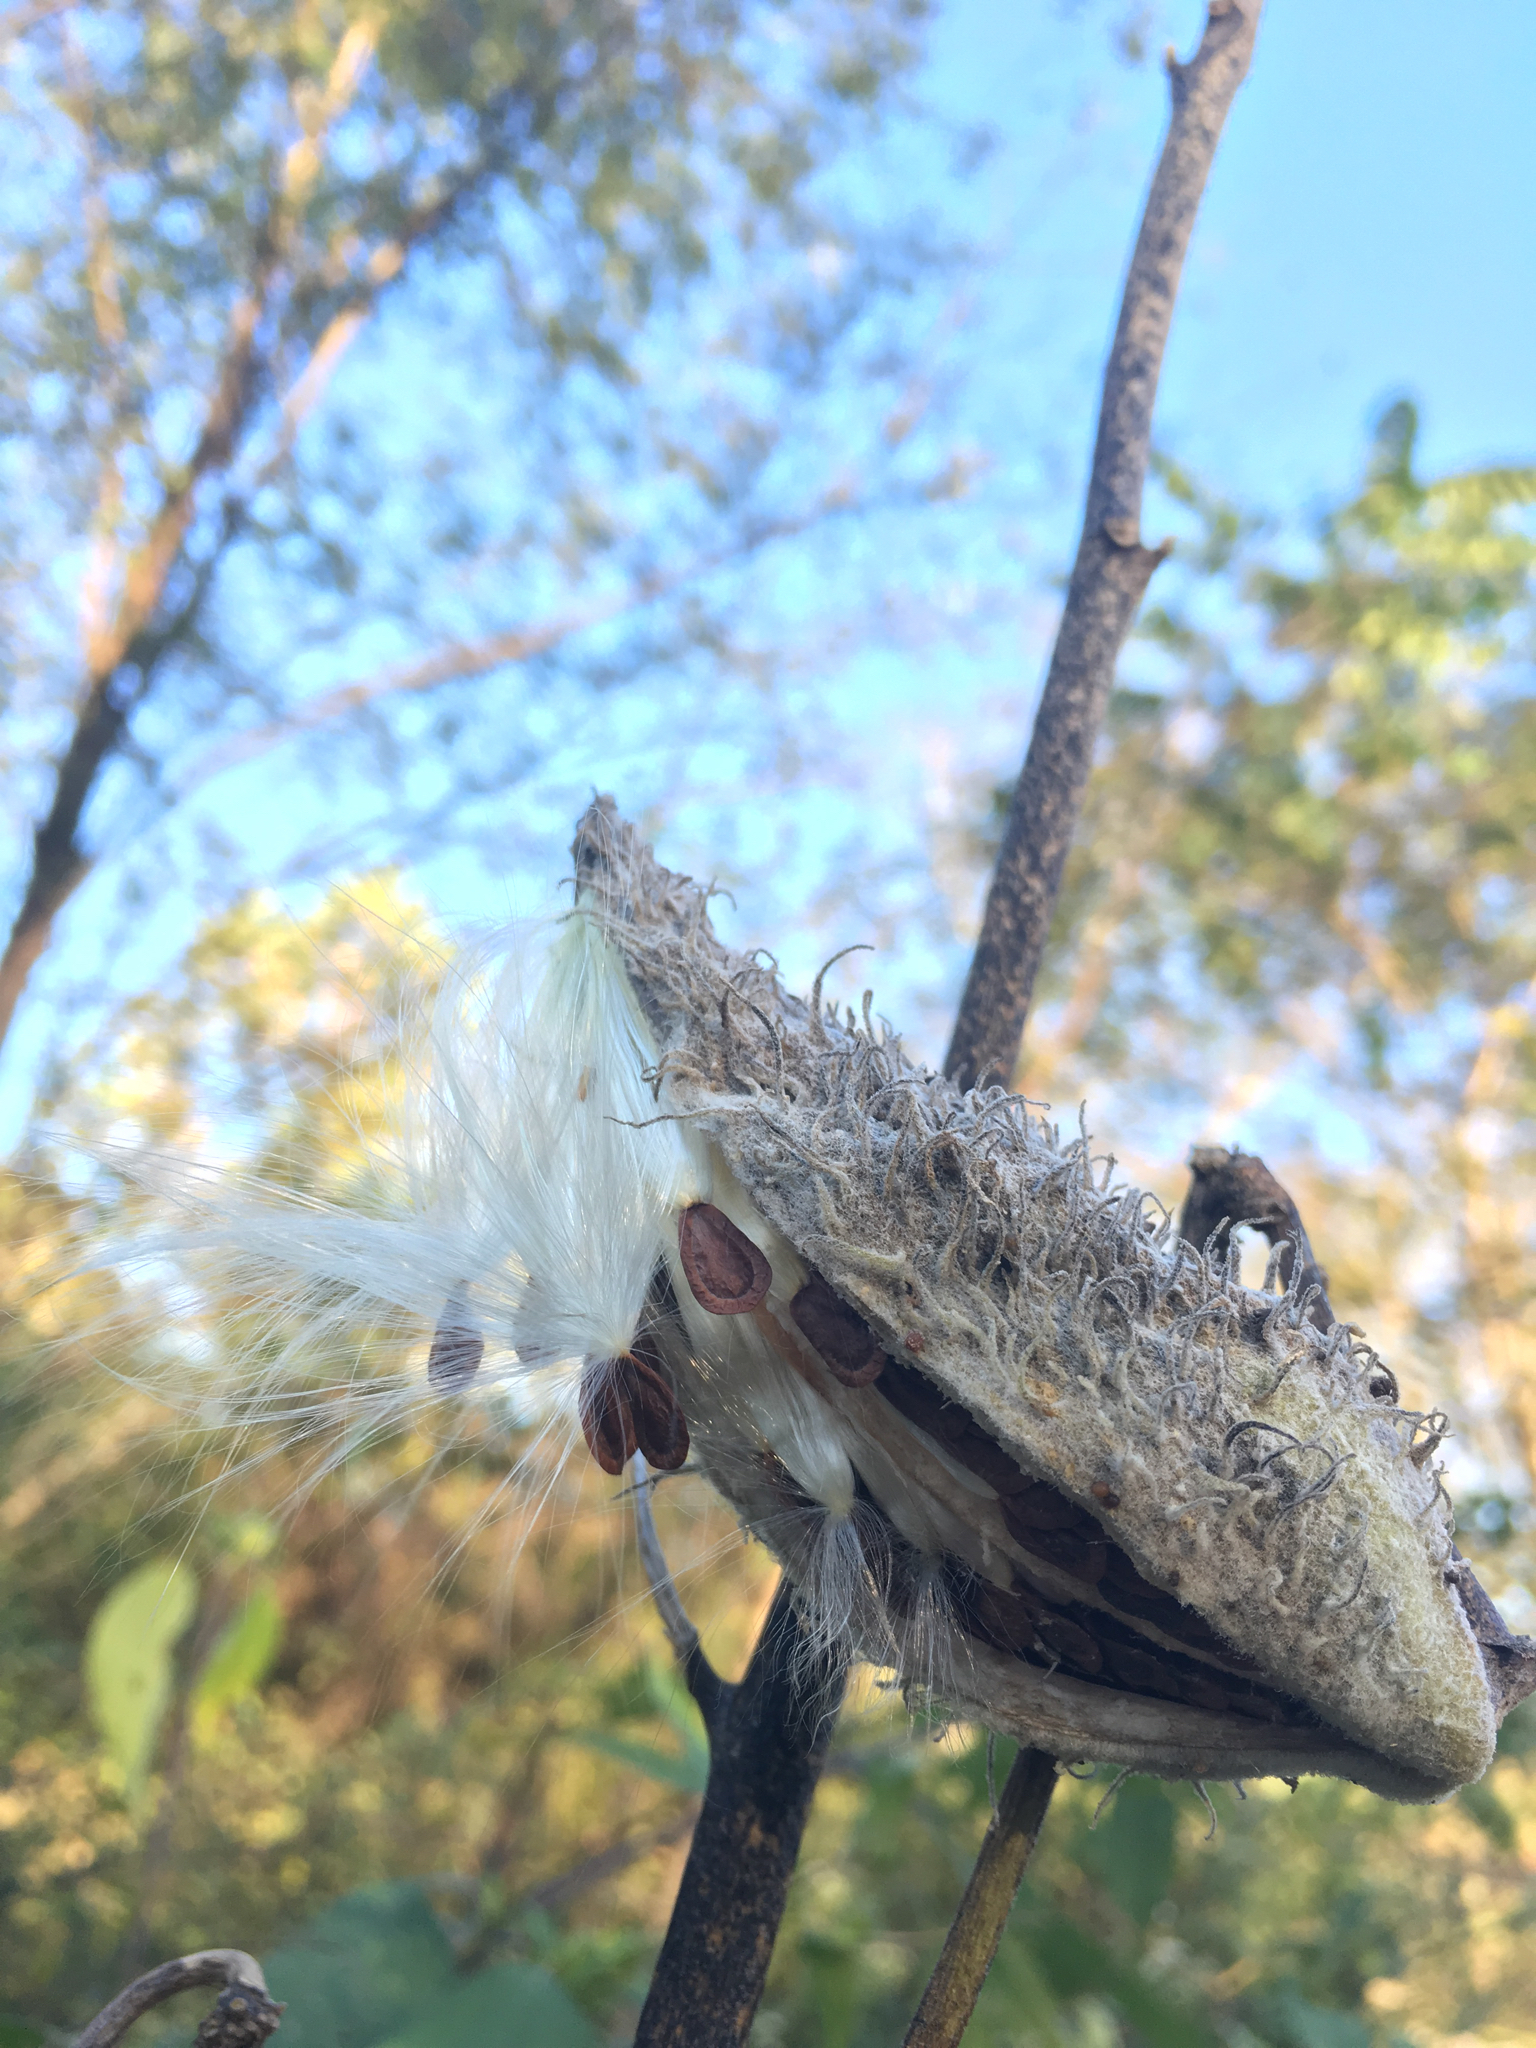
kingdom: Plantae
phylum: Tracheophyta
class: Magnoliopsida
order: Gentianales
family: Apocynaceae
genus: Asclepias
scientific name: Asclepias syriaca
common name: Common milkweed
